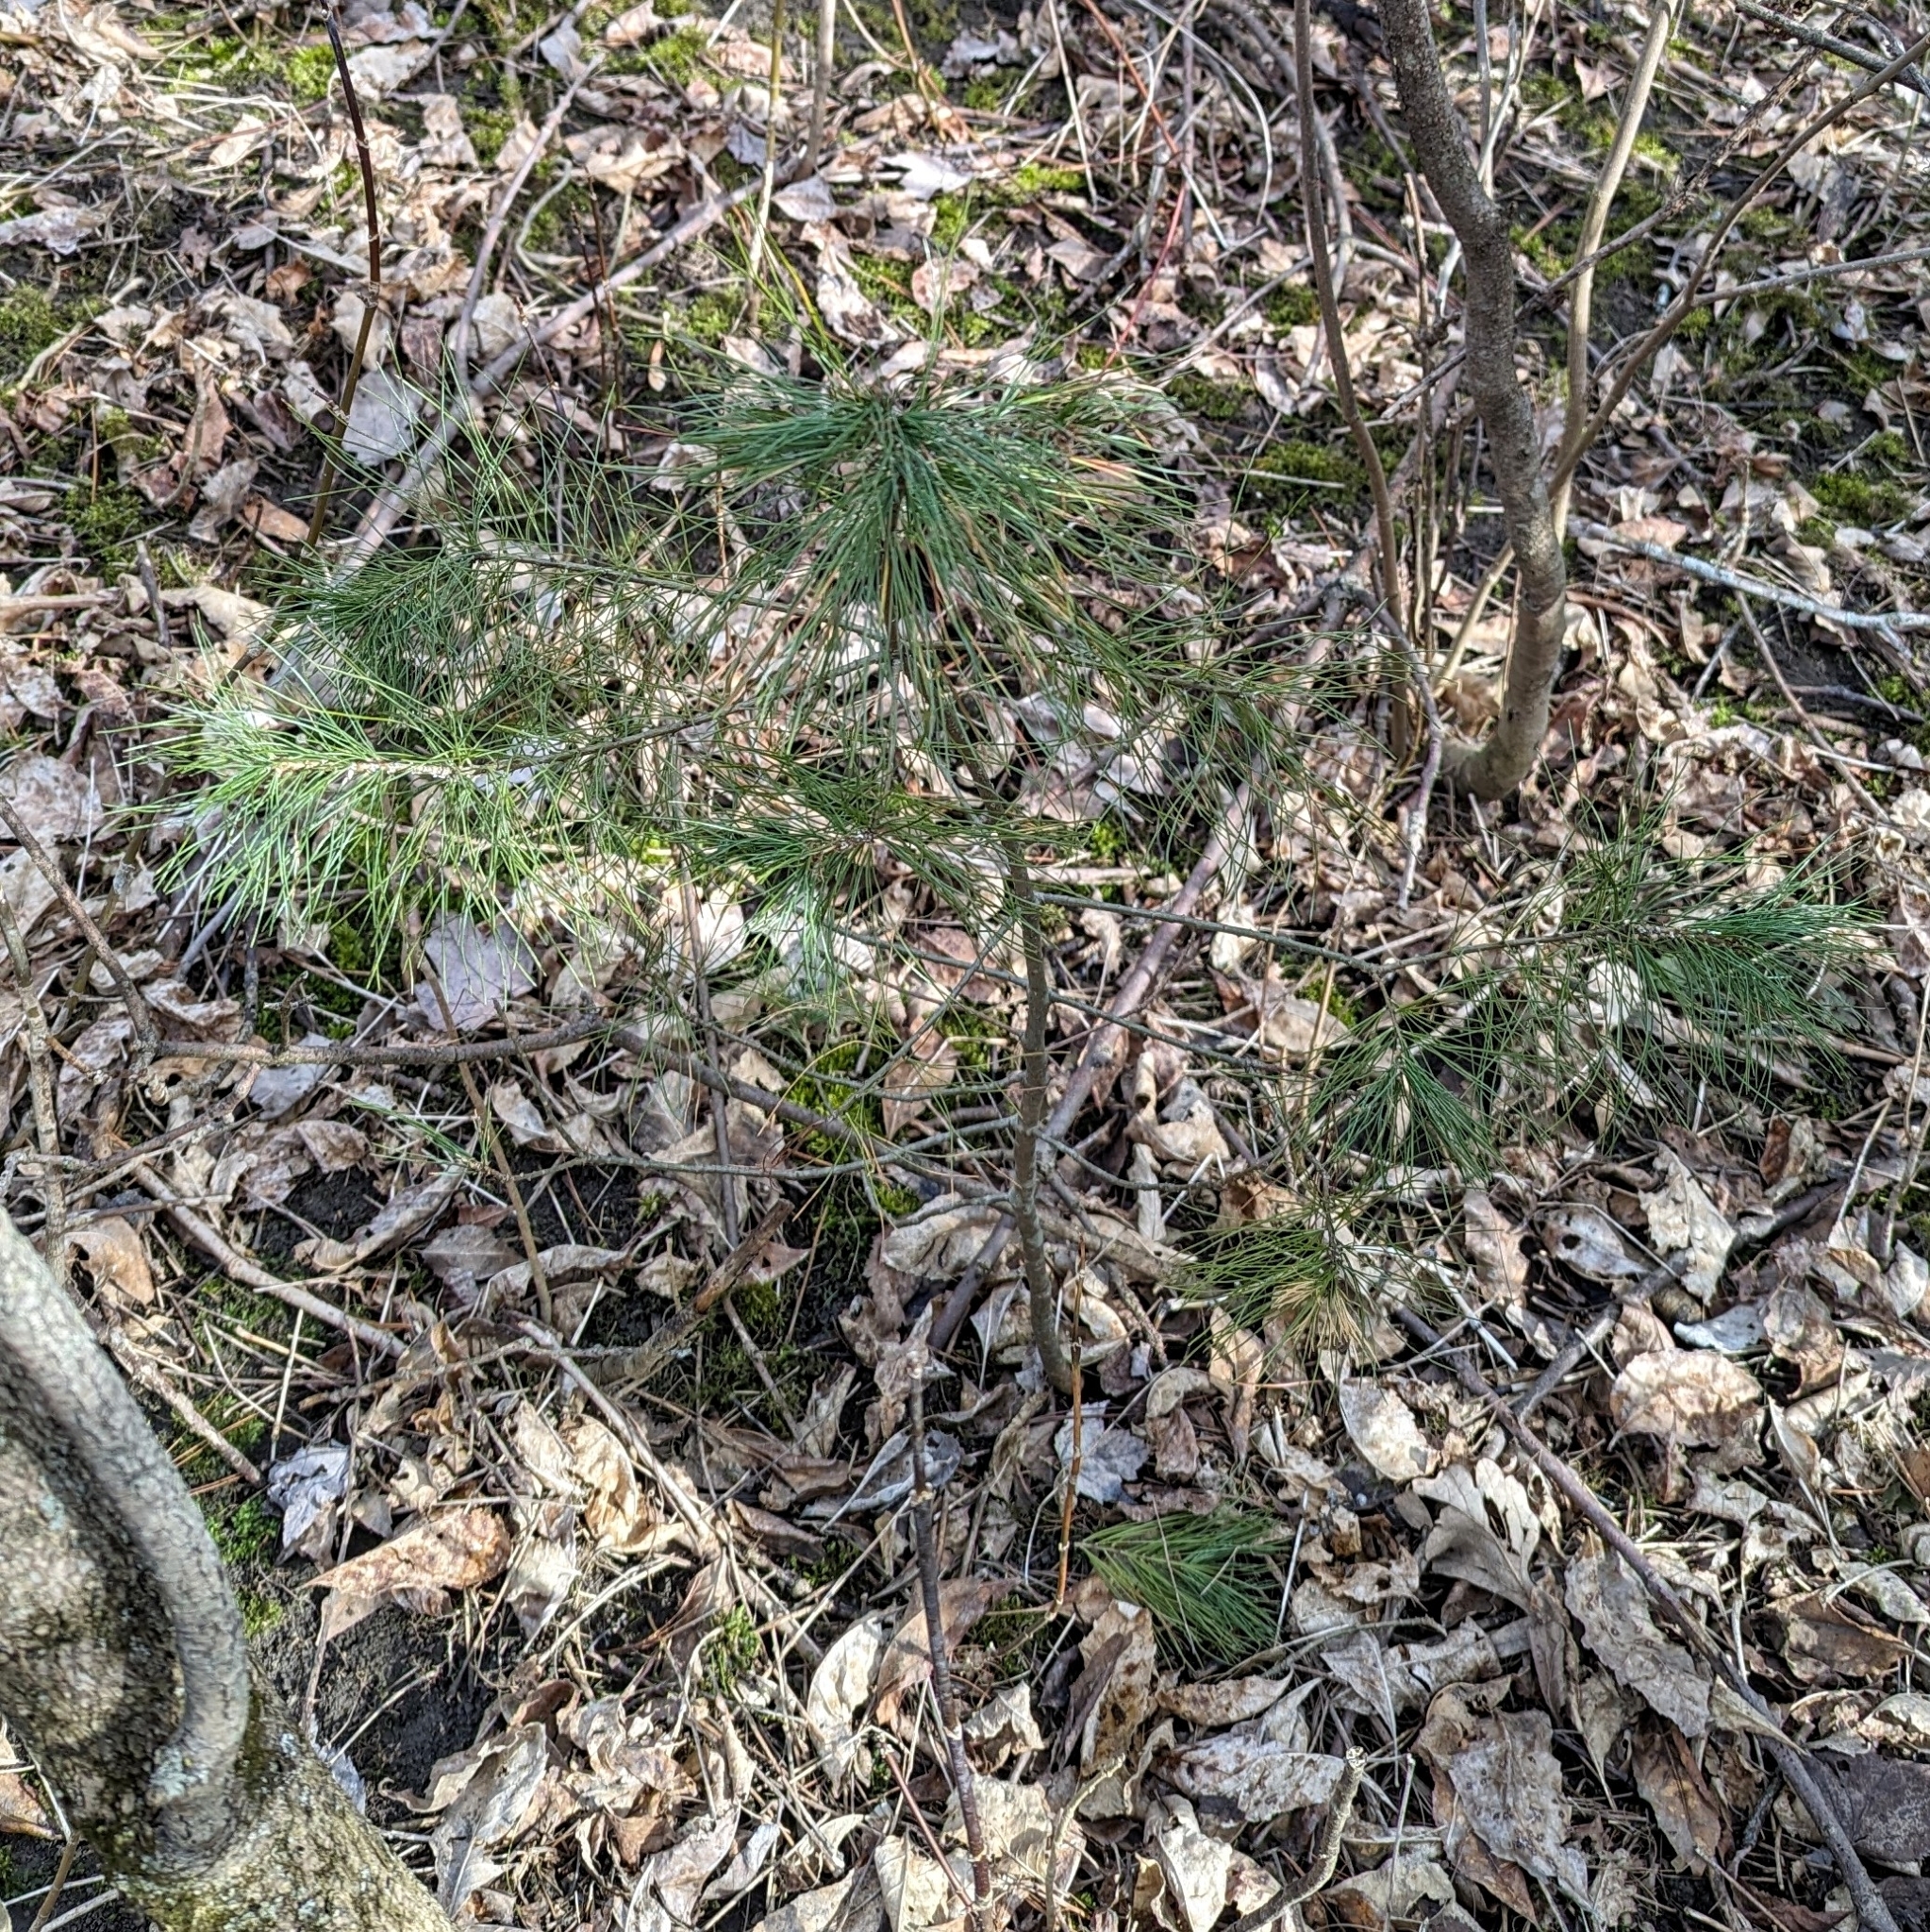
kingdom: Plantae
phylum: Tracheophyta
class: Pinopsida
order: Pinales
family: Pinaceae
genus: Pinus
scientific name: Pinus strobus
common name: Weymouth pine
